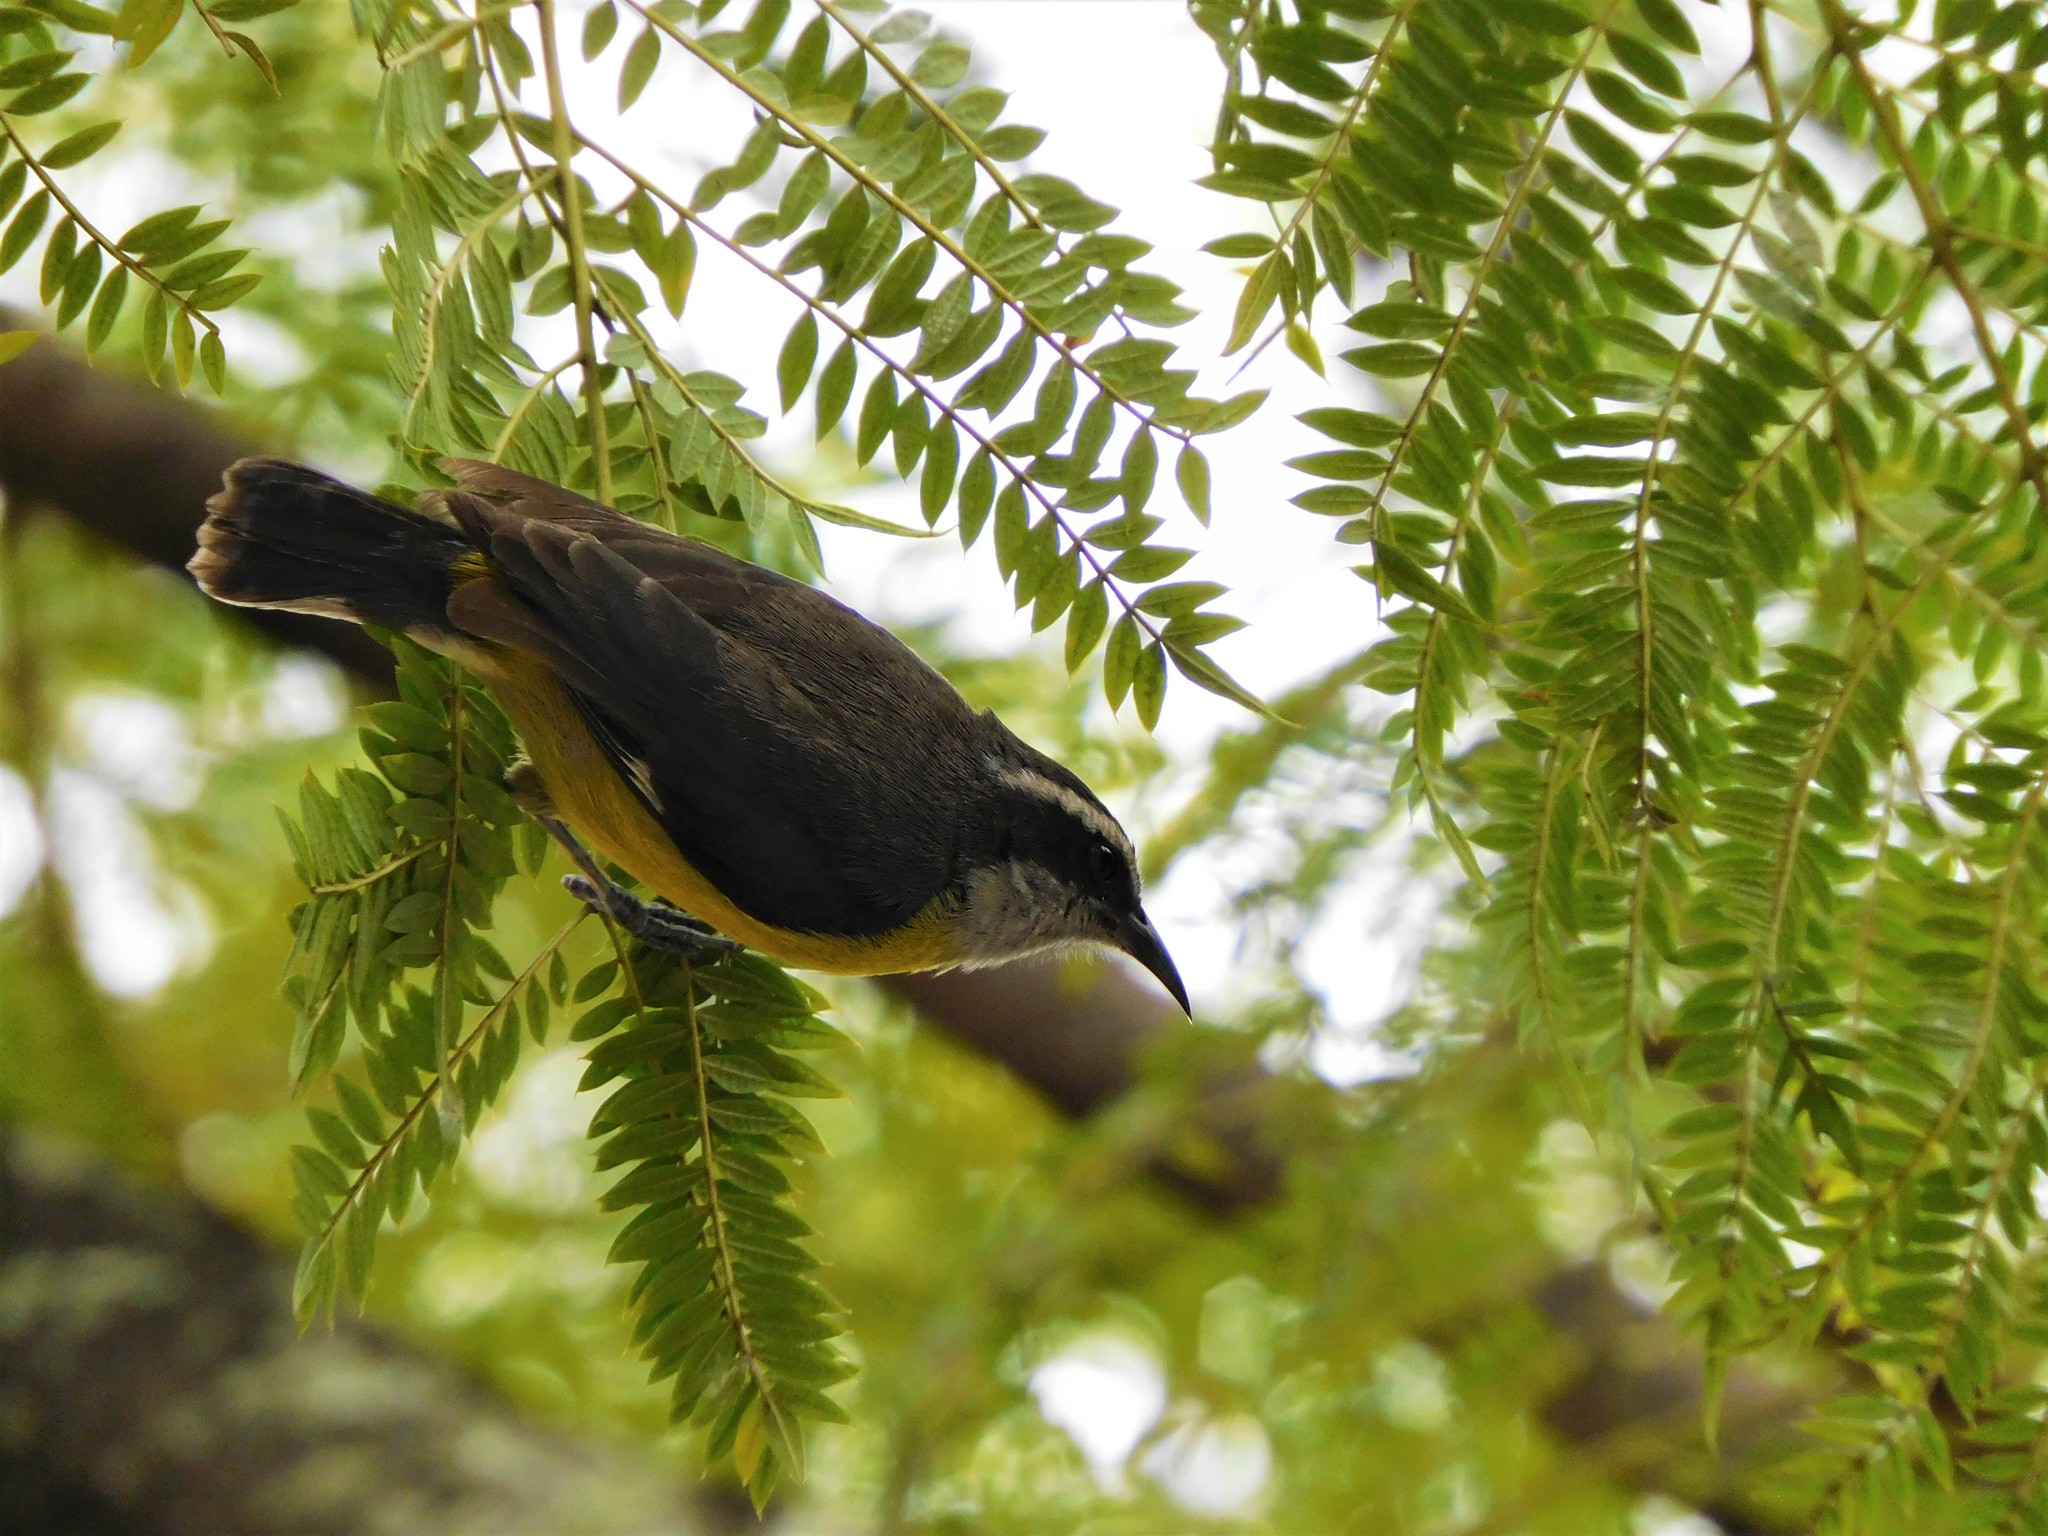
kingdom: Animalia
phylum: Chordata
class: Aves
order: Passeriformes
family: Thraupidae
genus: Coereba
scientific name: Coereba flaveola
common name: Bananaquit
